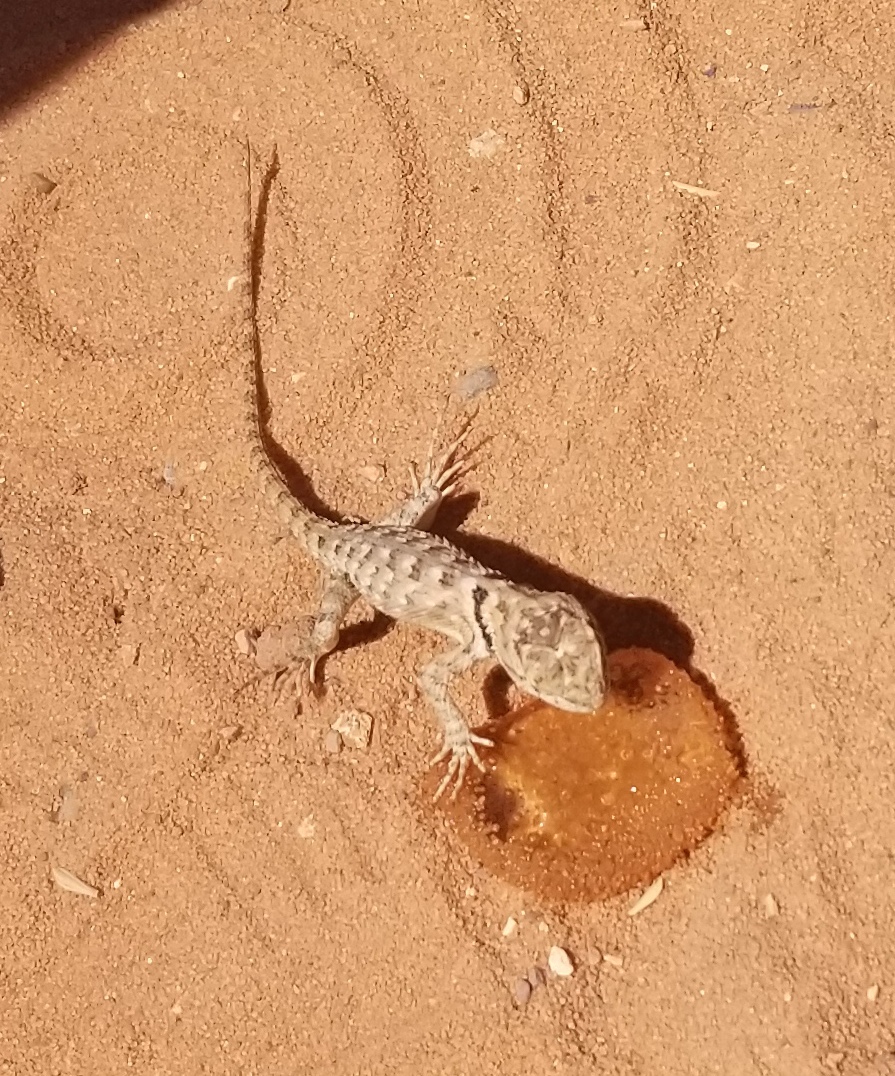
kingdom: Animalia
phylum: Chordata
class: Squamata
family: Phrynosomatidae
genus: Sceloporus
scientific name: Sceloporus magister
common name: Desert spiny lizard
